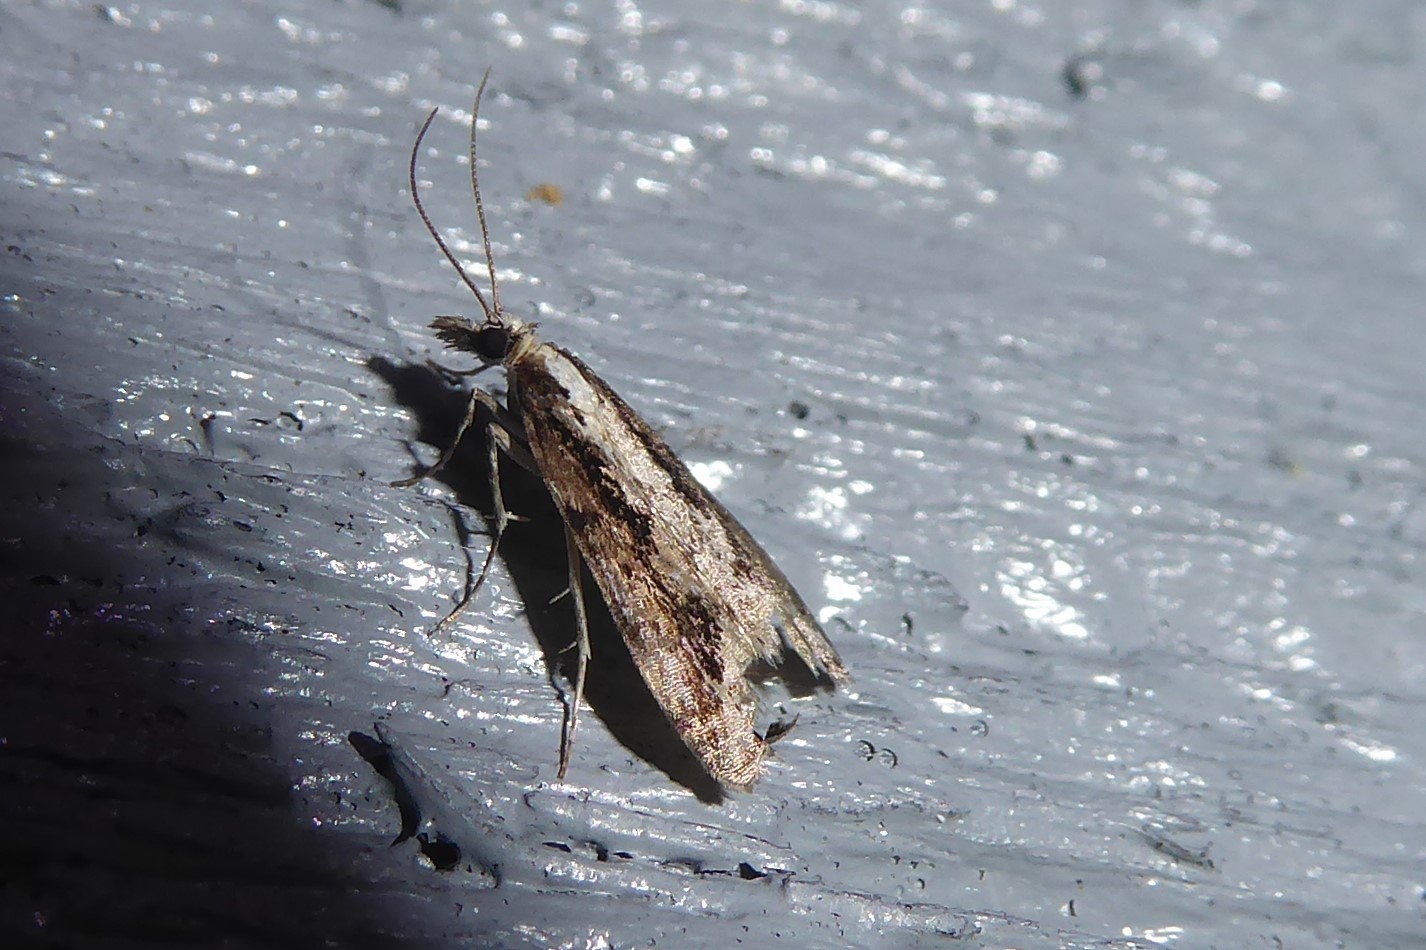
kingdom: Animalia
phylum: Arthropoda
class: Insecta
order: Lepidoptera
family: Crambidae
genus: Eudonia
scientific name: Eudonia steropaea
